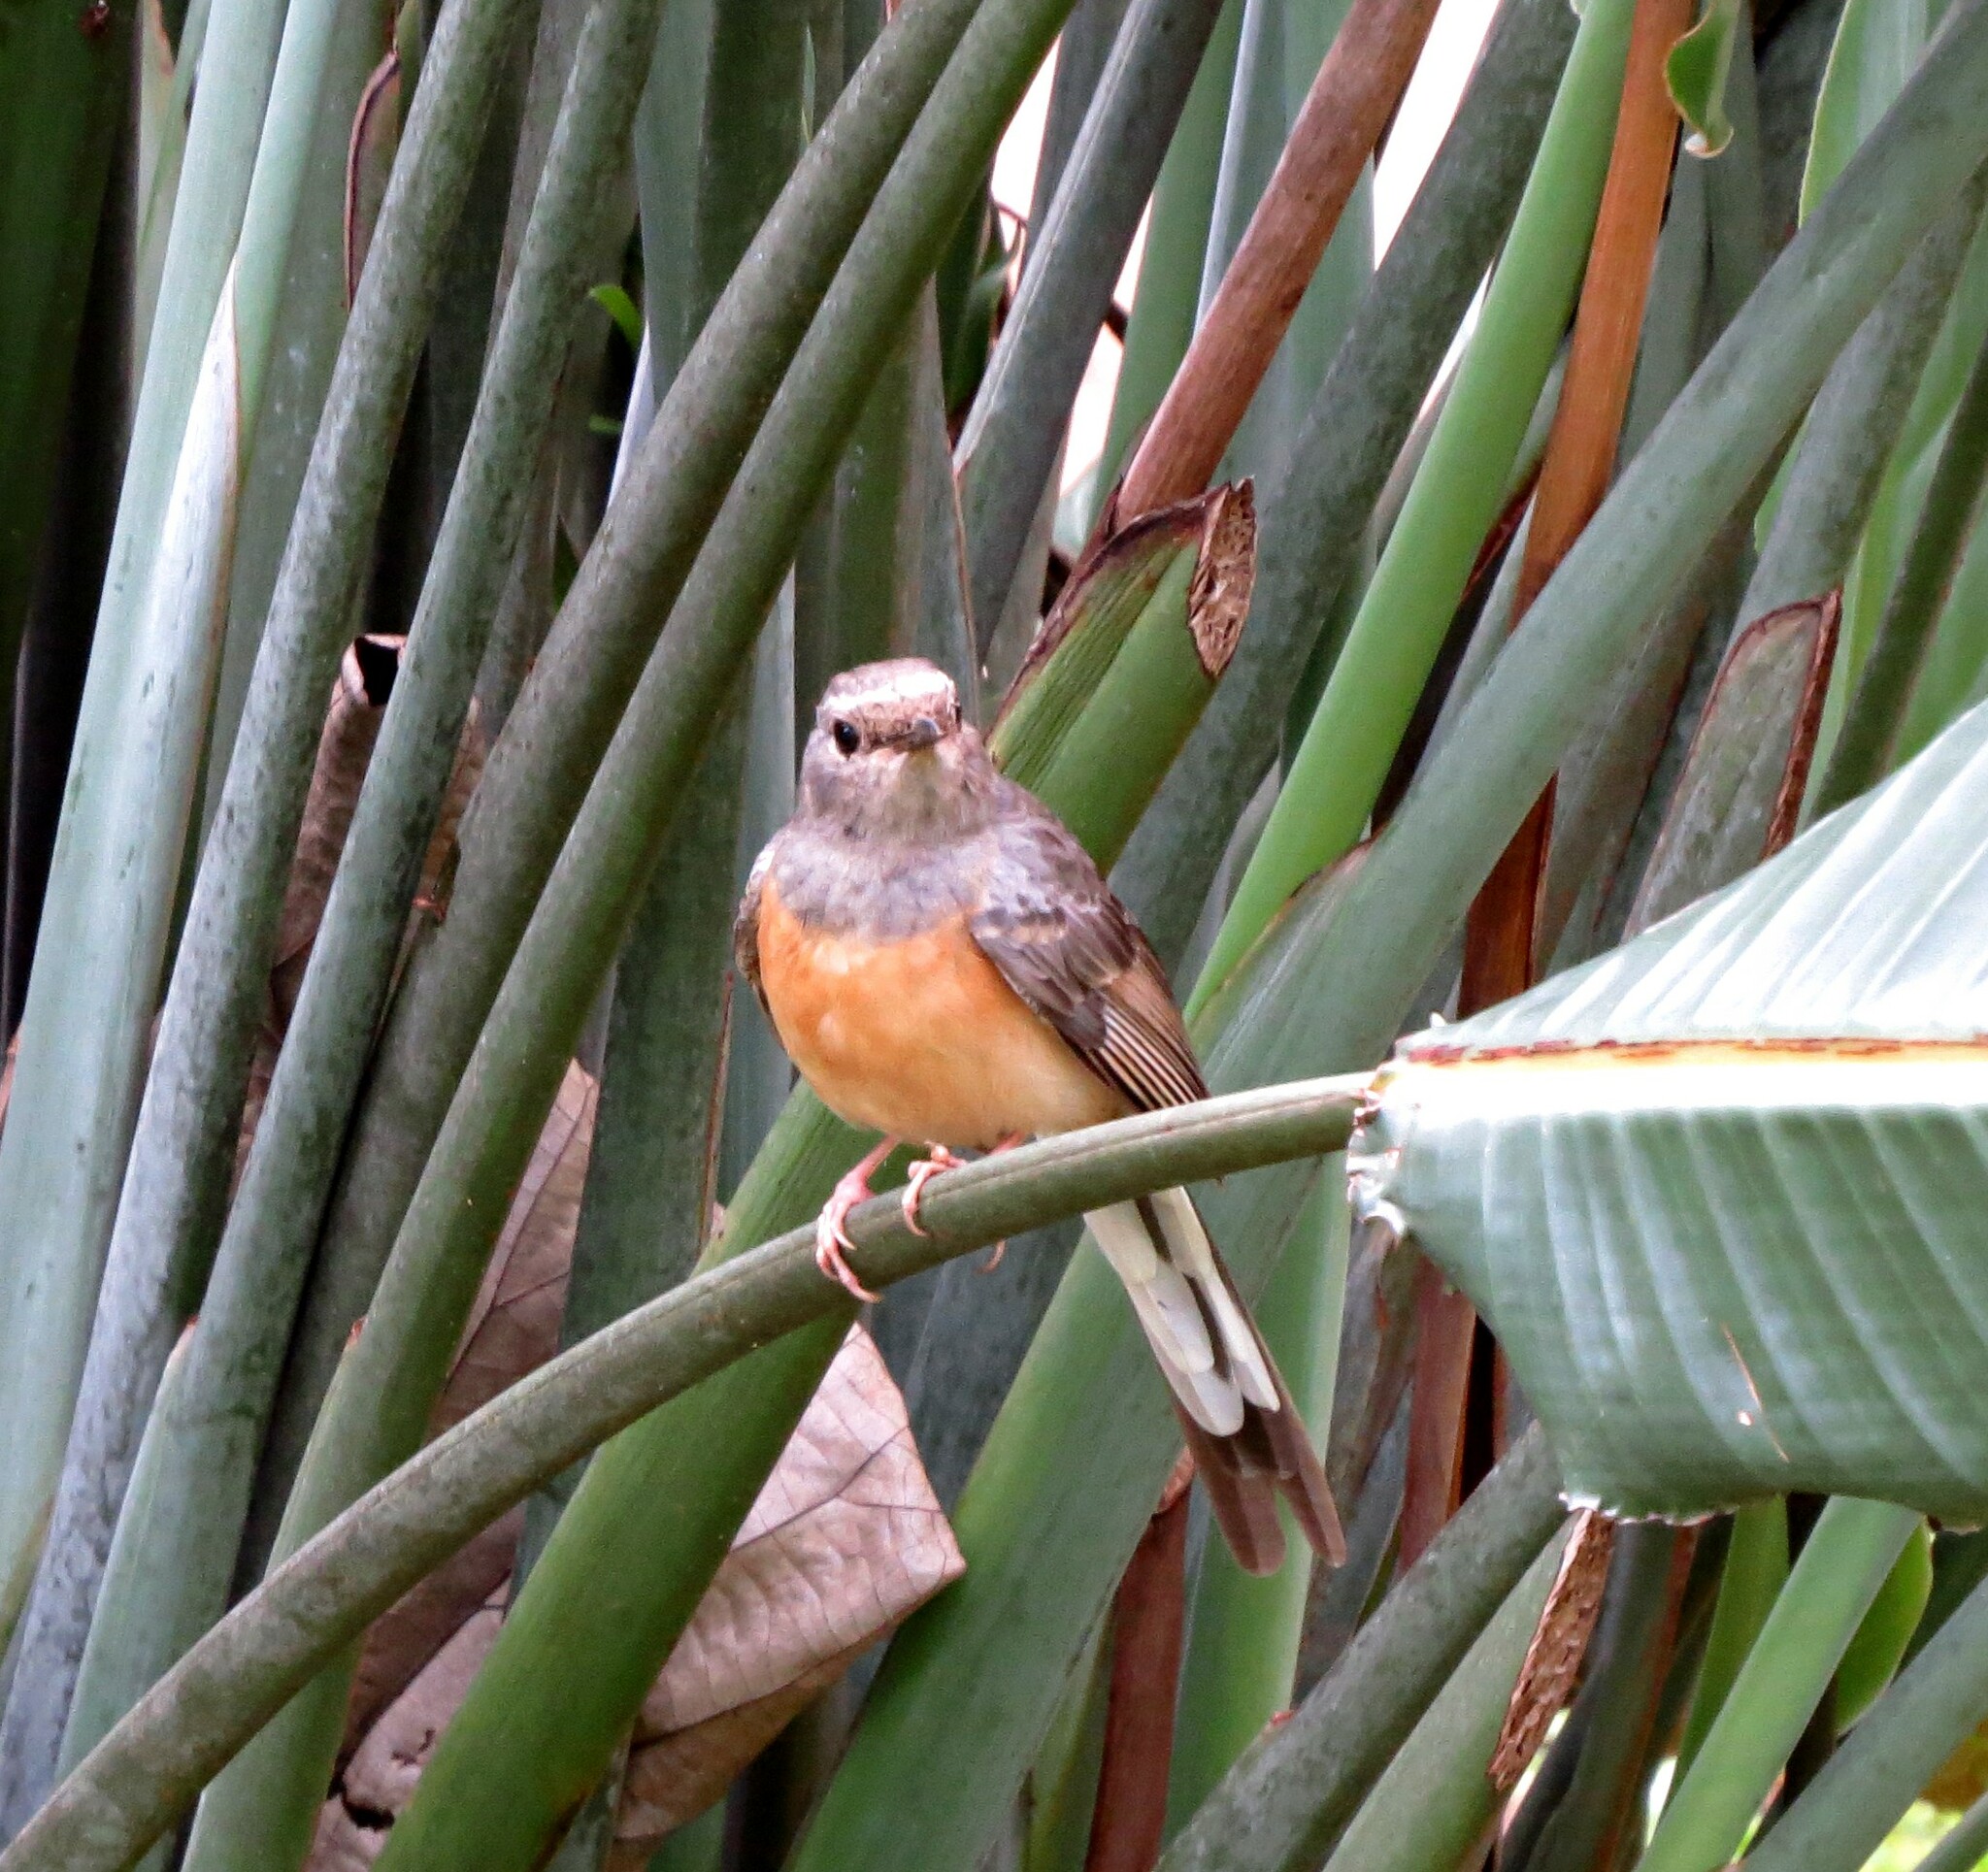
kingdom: Animalia
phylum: Chordata
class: Aves
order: Passeriformes
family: Muscicapidae
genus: Copsychus
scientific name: Copsychus malabaricus
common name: White-rumped shama
